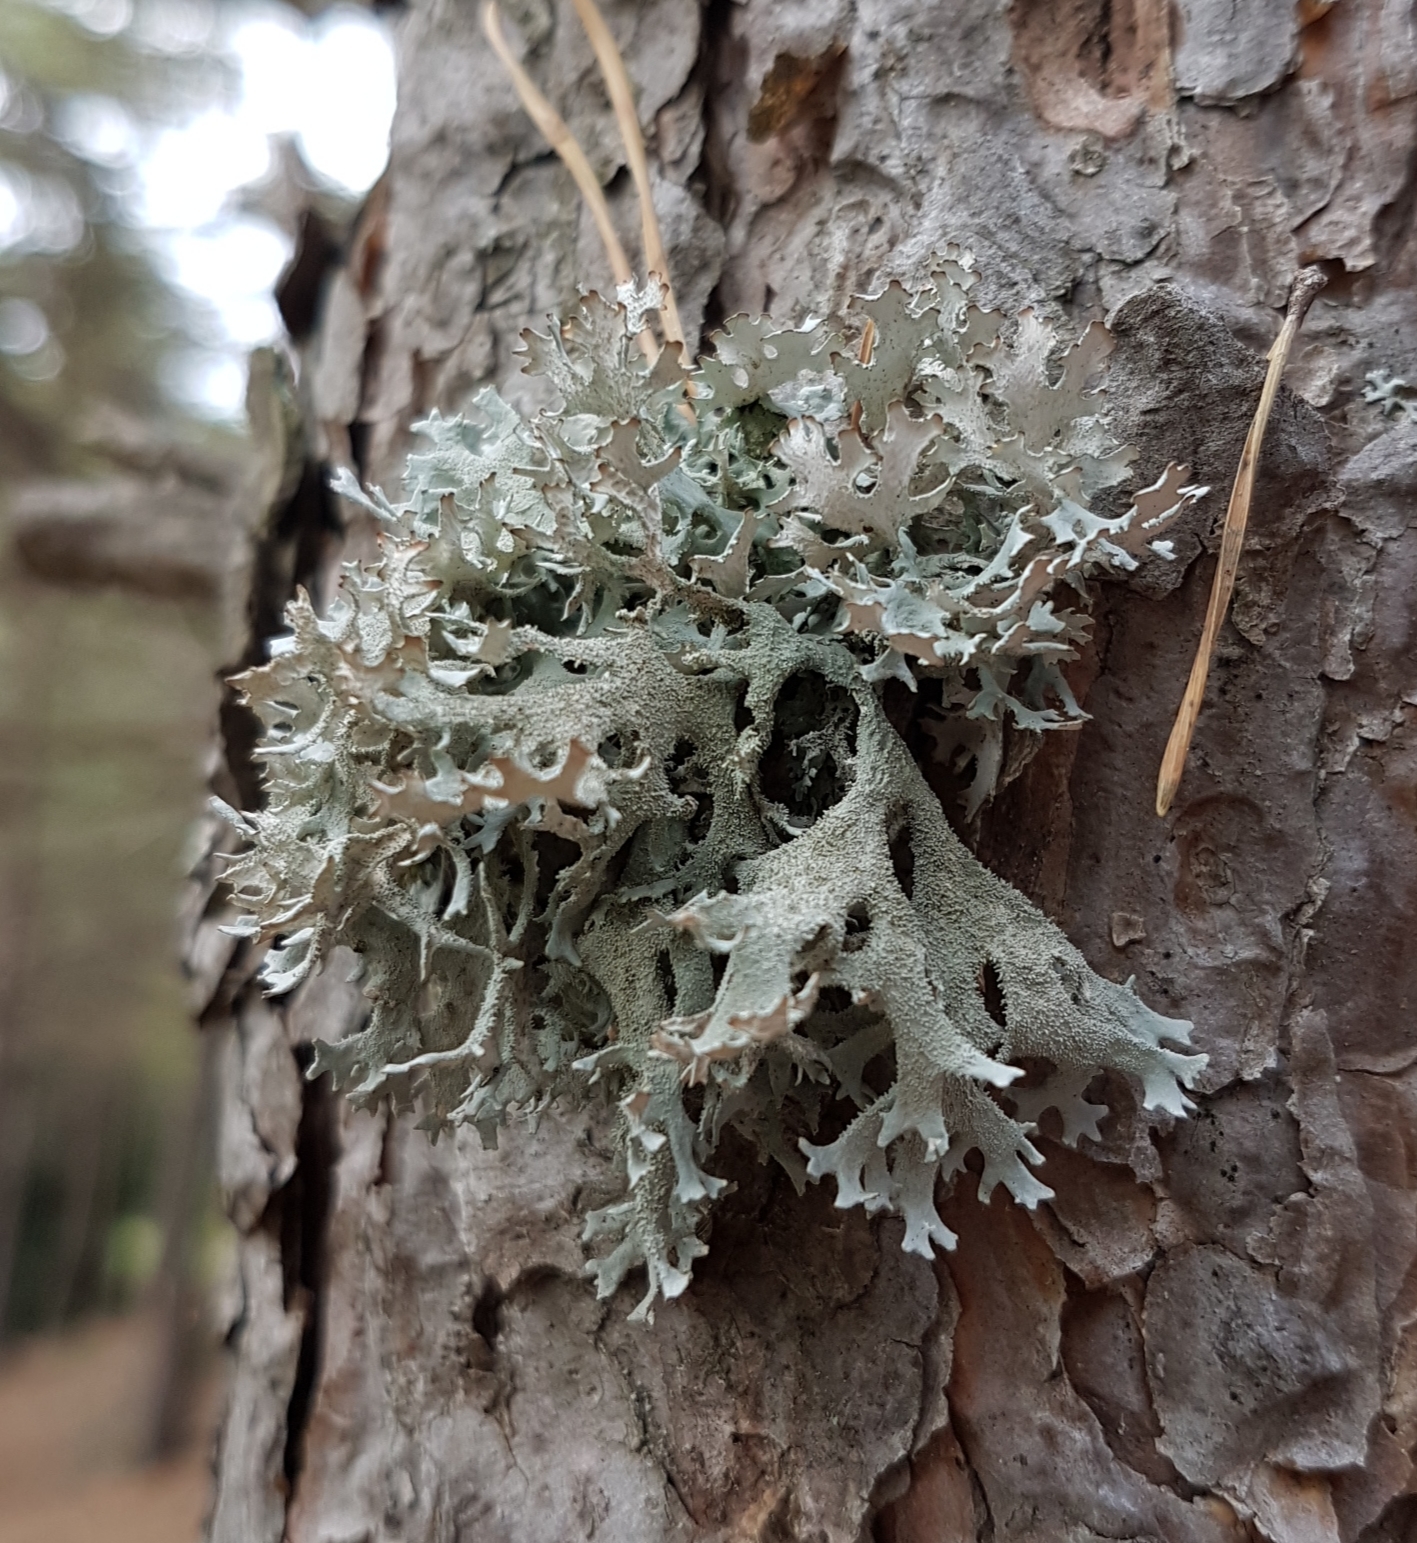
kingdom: Fungi
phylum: Ascomycota
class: Lecanoromycetes
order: Lecanorales
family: Parmeliaceae
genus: Pseudevernia
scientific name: Pseudevernia furfuracea
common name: Tree moss
